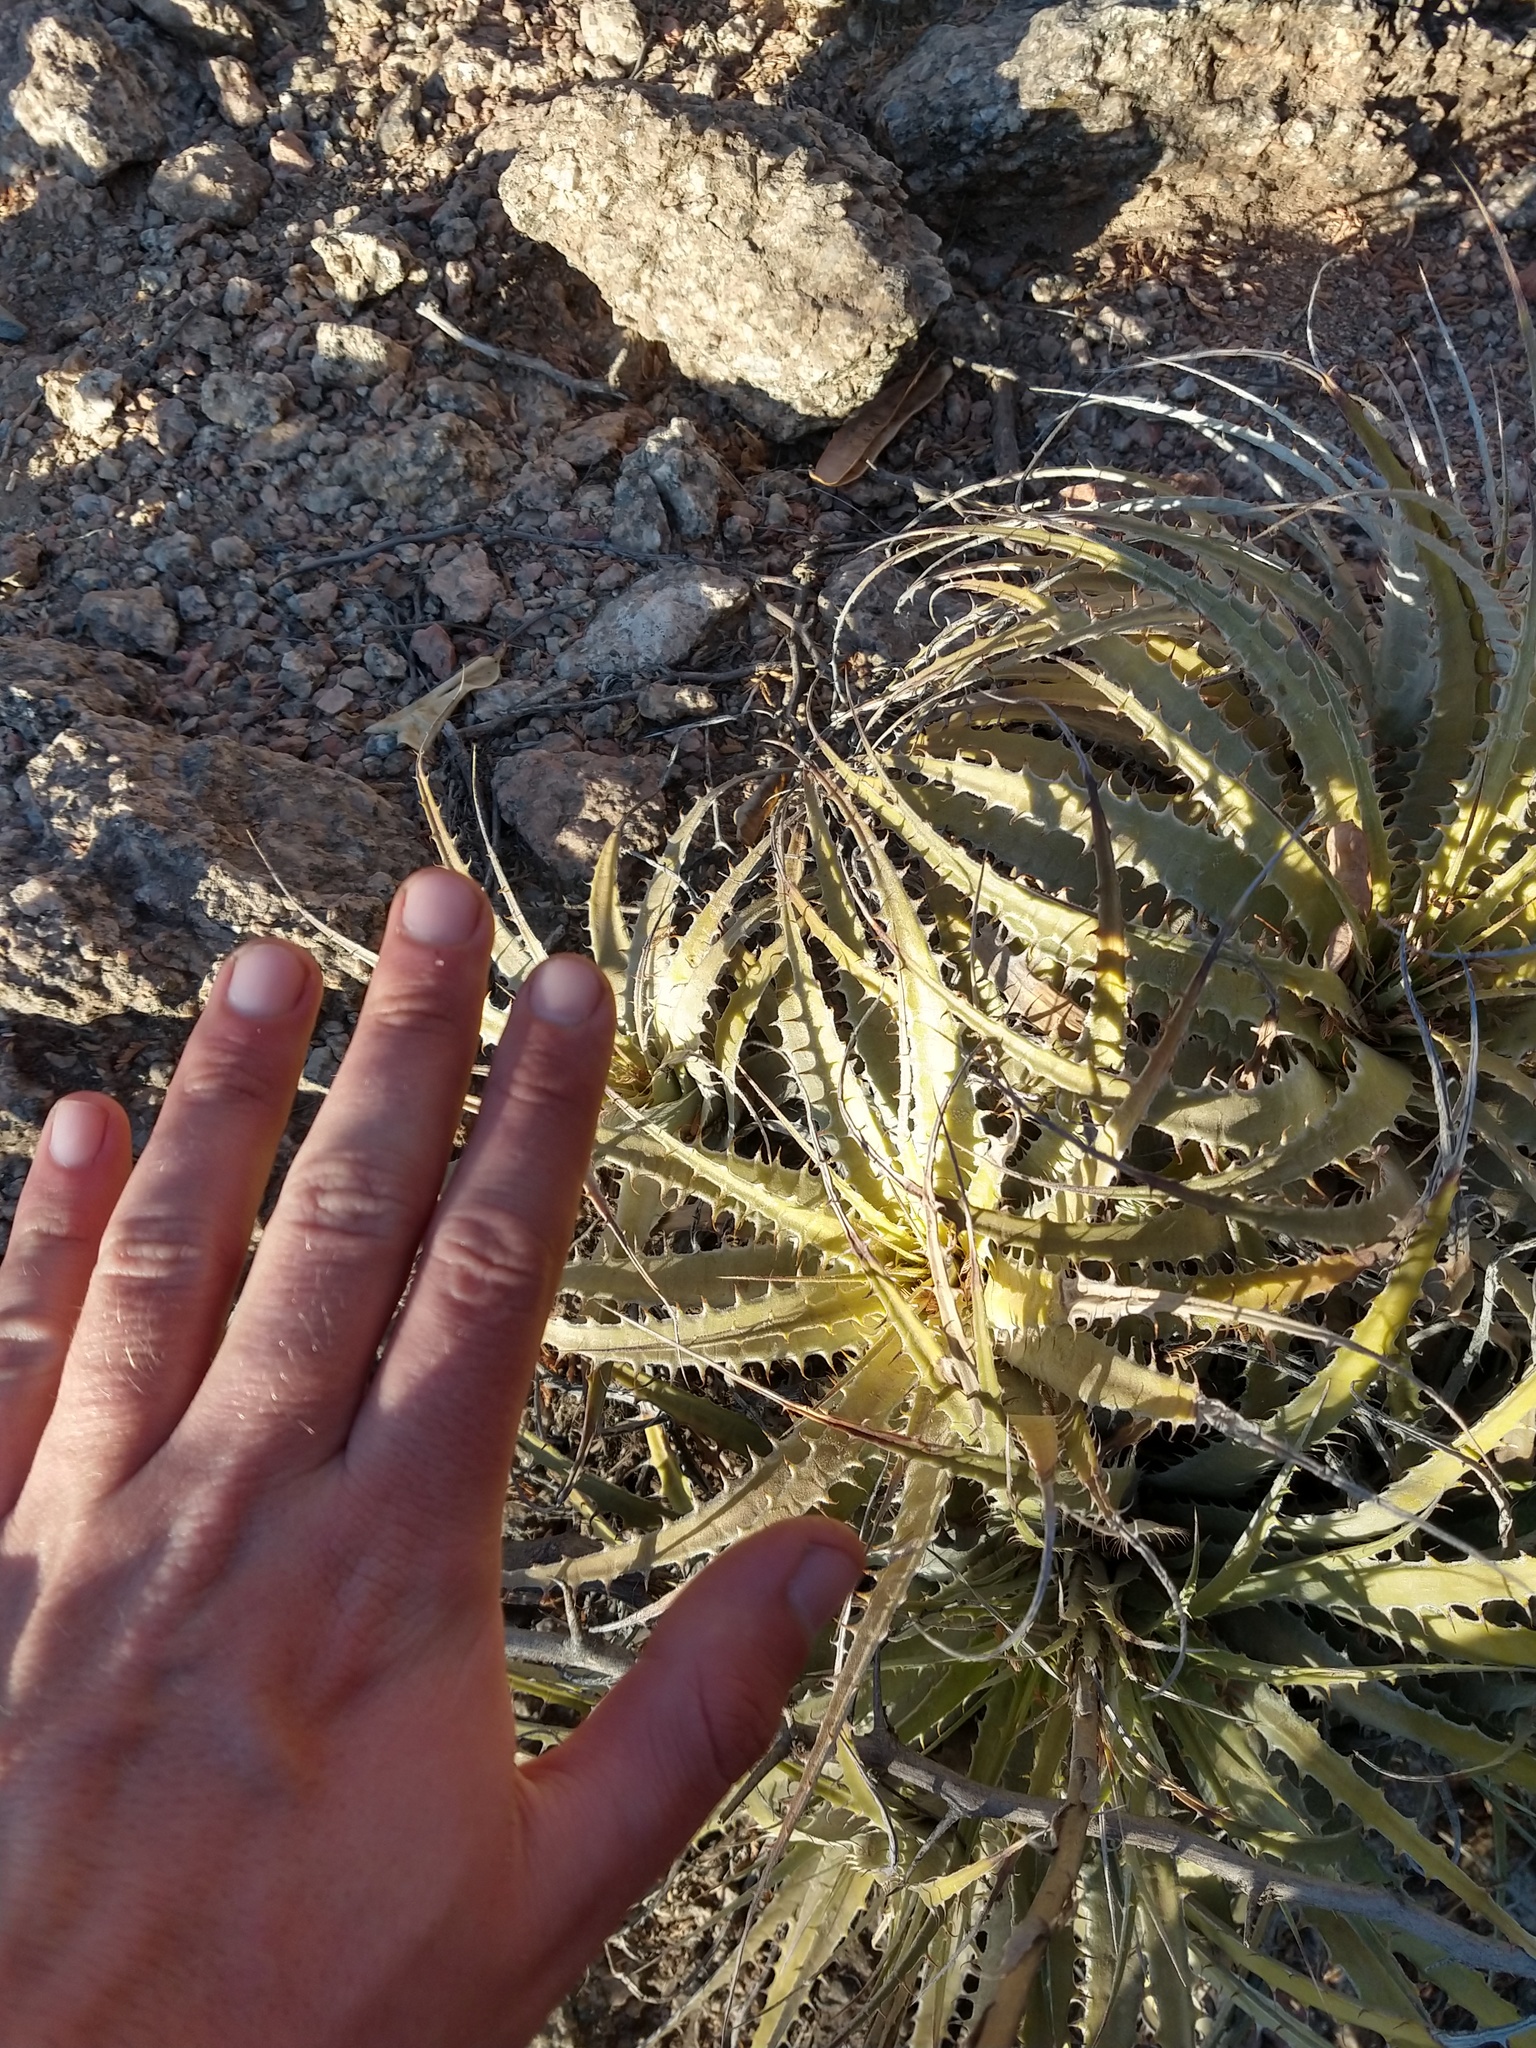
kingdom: Plantae
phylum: Tracheophyta
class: Liliopsida
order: Poales
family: Bromeliaceae
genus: Deuterocohnia
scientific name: Deuterocohnia schreiteri
